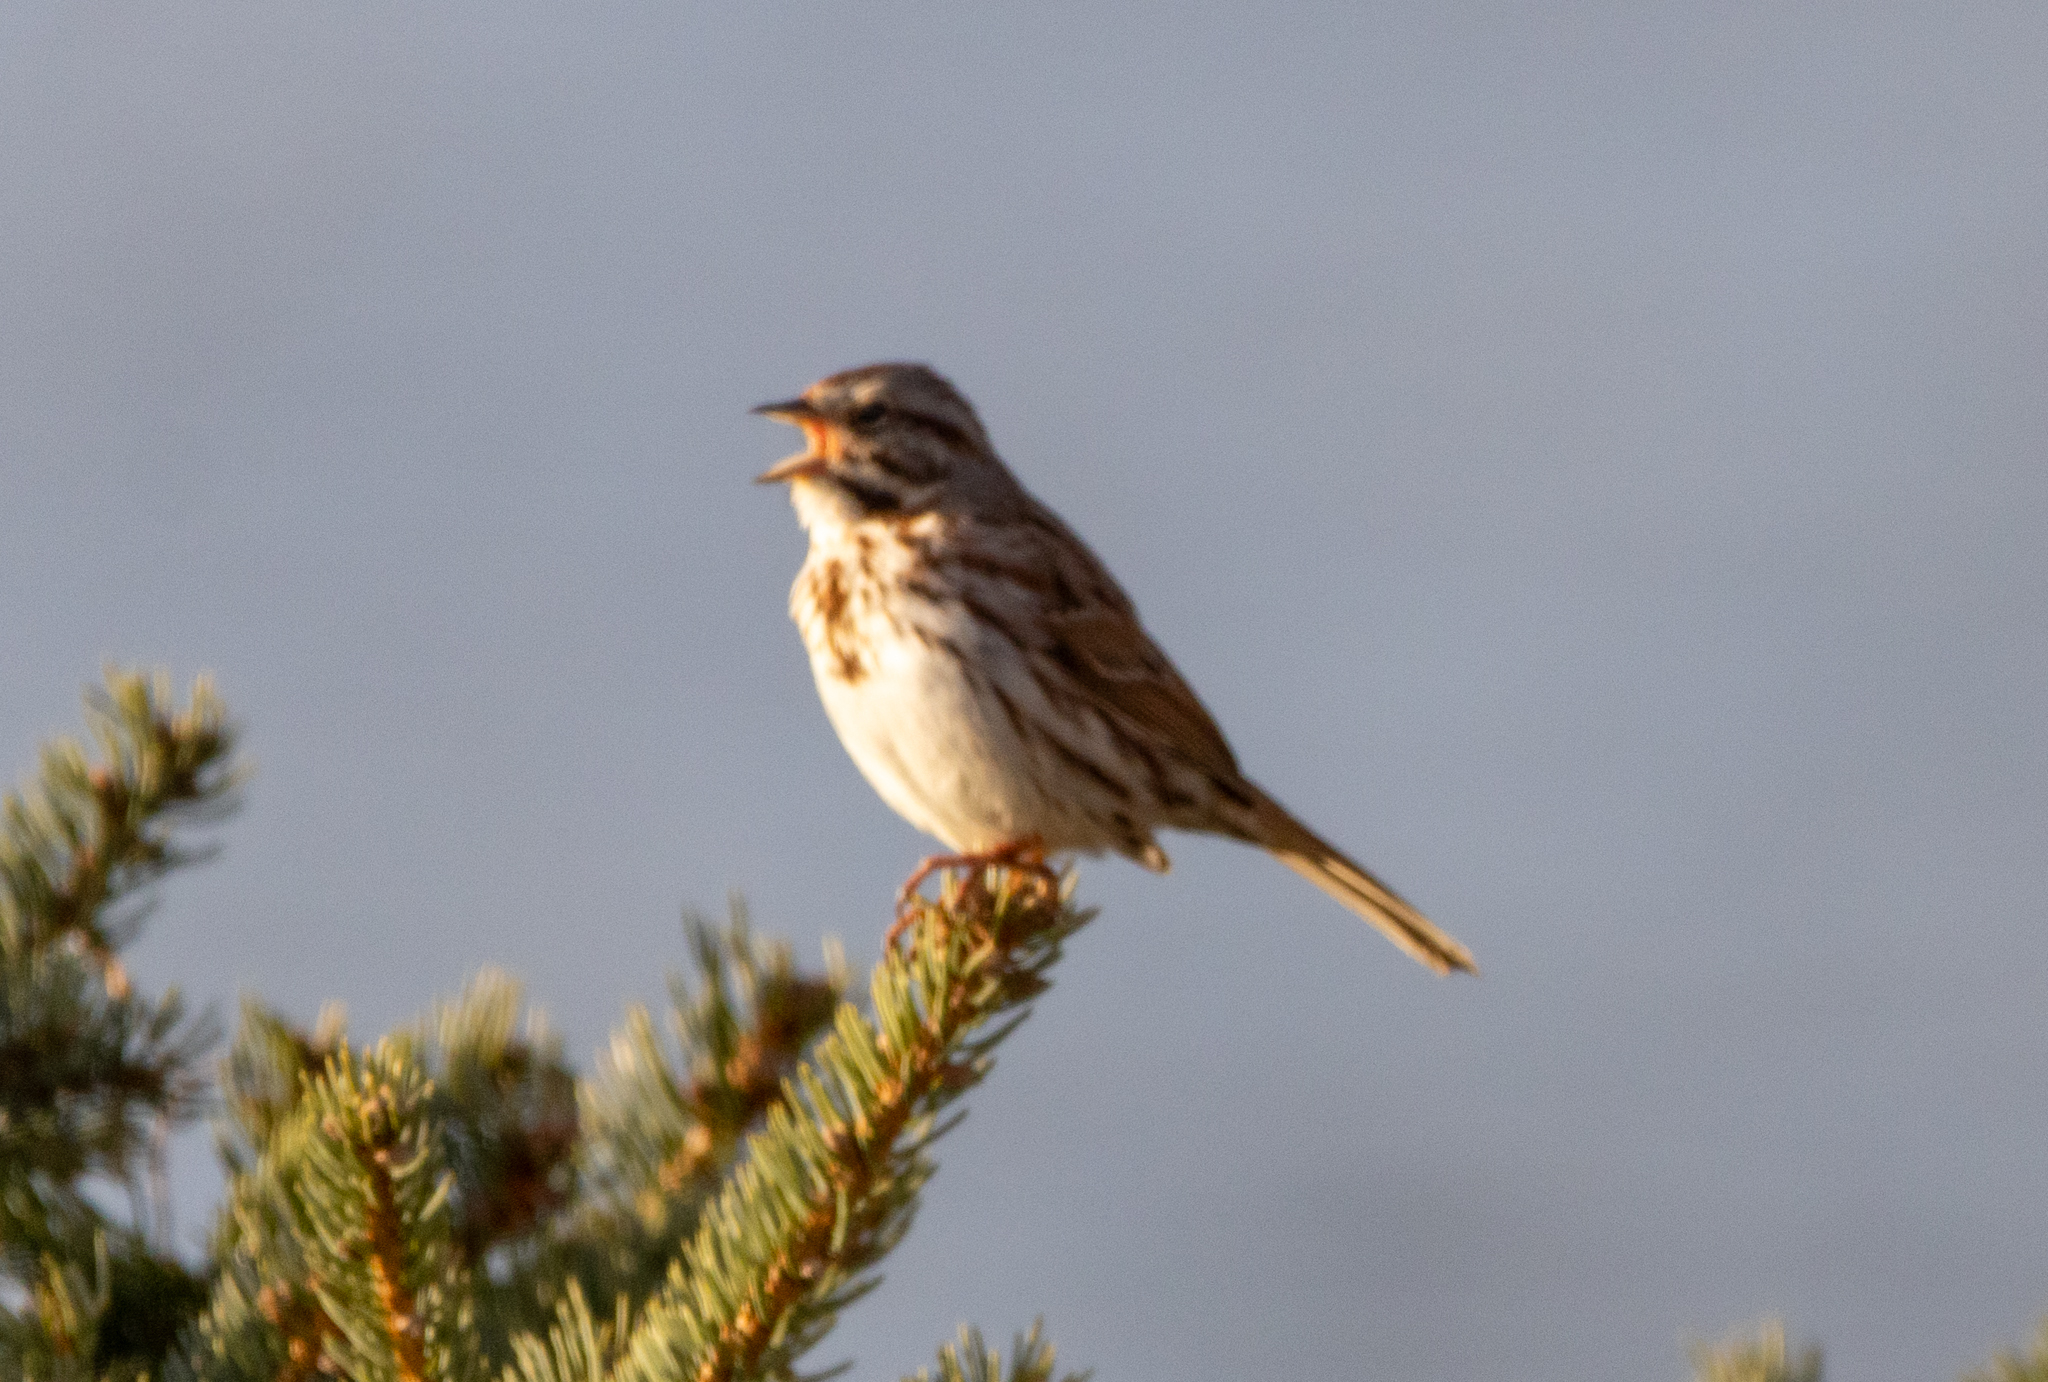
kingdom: Animalia
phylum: Chordata
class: Aves
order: Passeriformes
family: Passerellidae
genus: Melospiza
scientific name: Melospiza melodia
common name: Song sparrow
